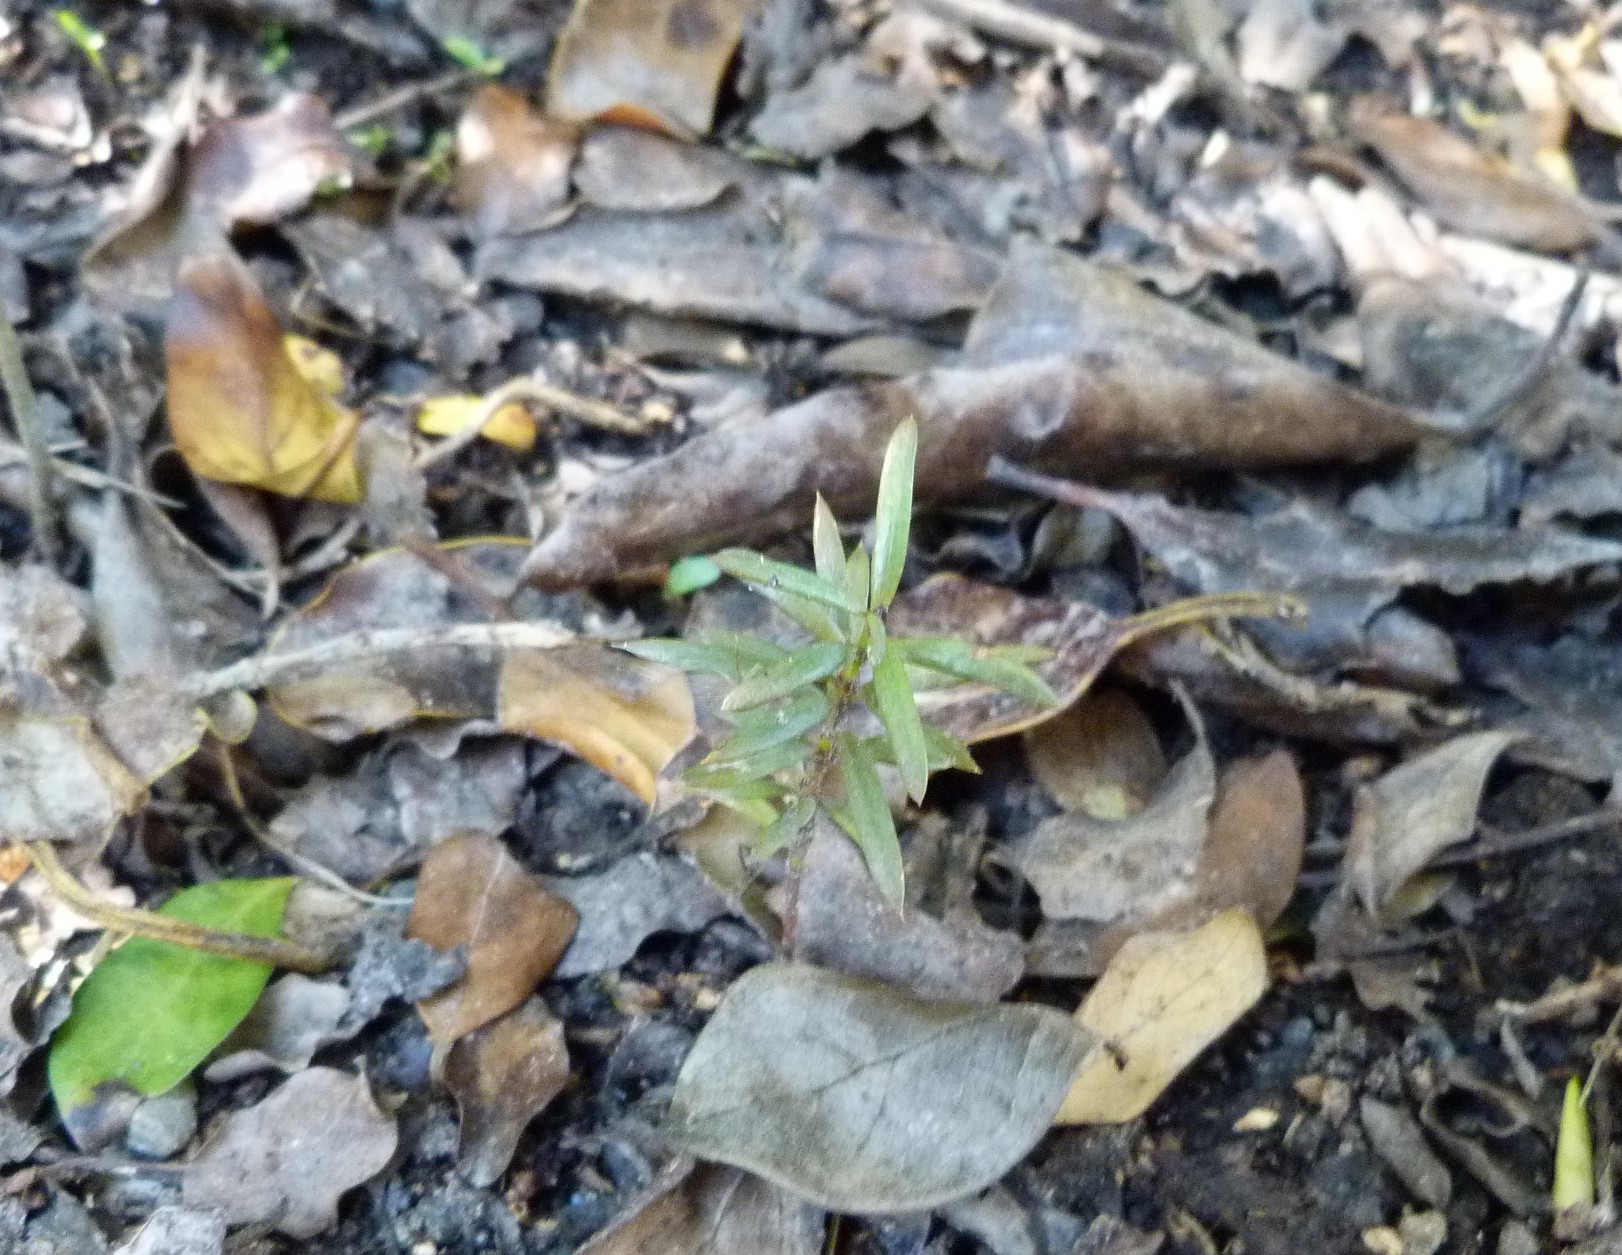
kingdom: Plantae
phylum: Tracheophyta
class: Pinopsida
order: Pinales
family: Podocarpaceae
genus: Podocarpus
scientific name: Podocarpus totara
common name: Totara
